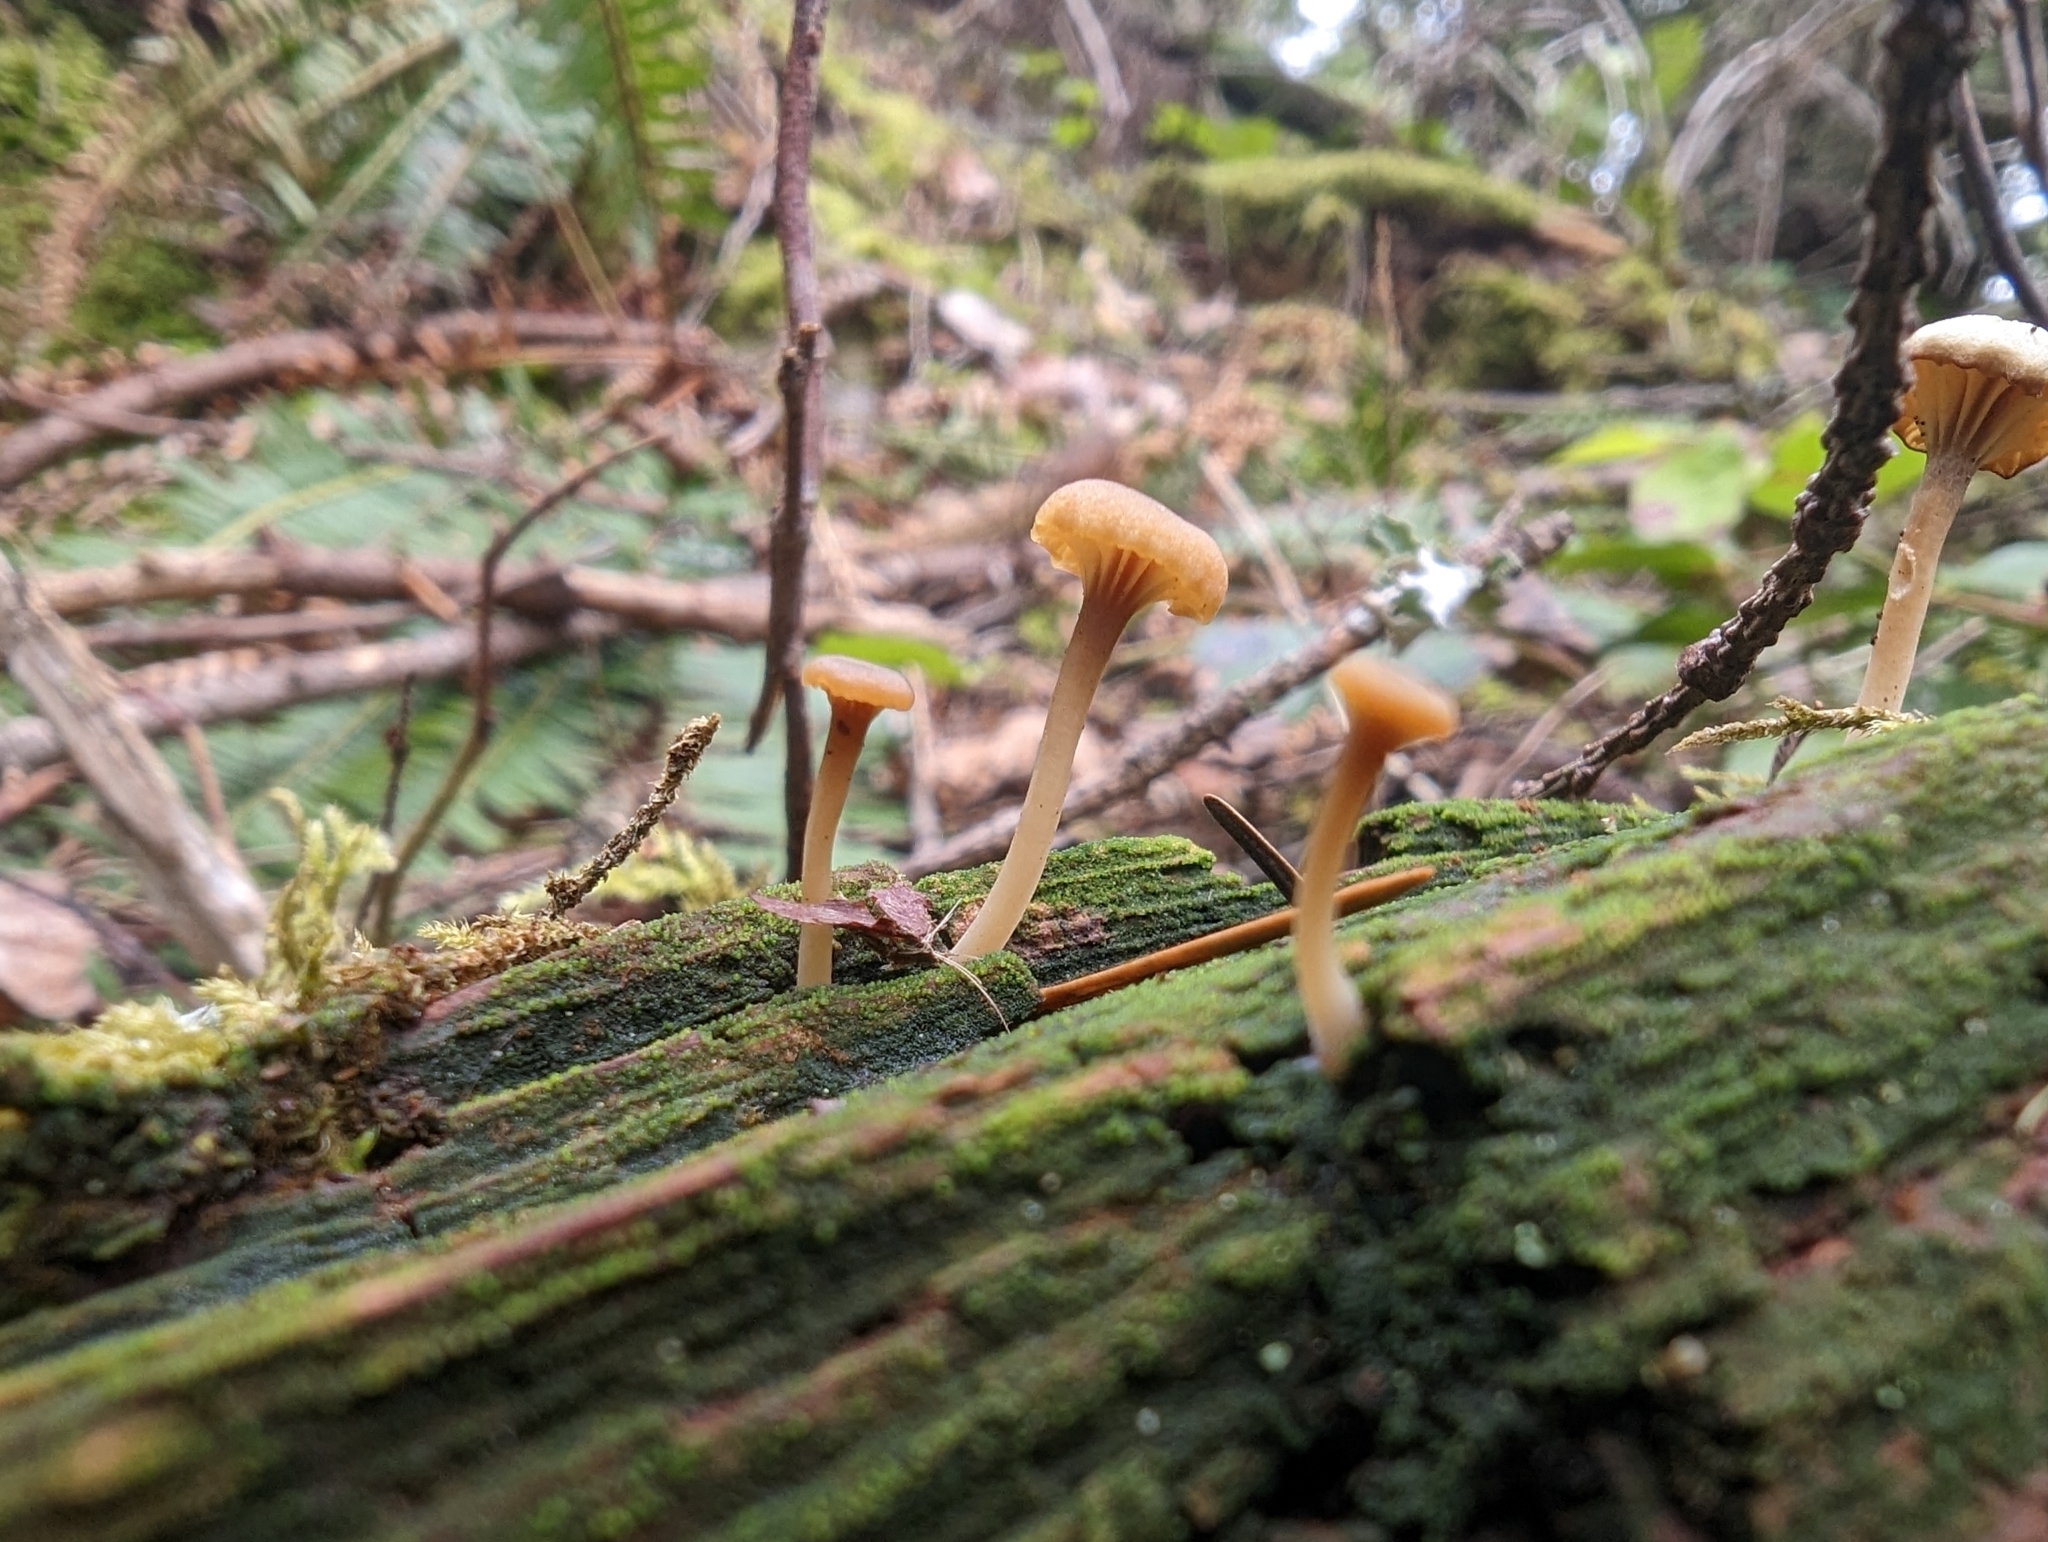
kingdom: Fungi
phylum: Basidiomycota
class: Agaricomycetes
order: Agaricales
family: Hygrophoraceae
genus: Lichenomphalia
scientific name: Lichenomphalia
